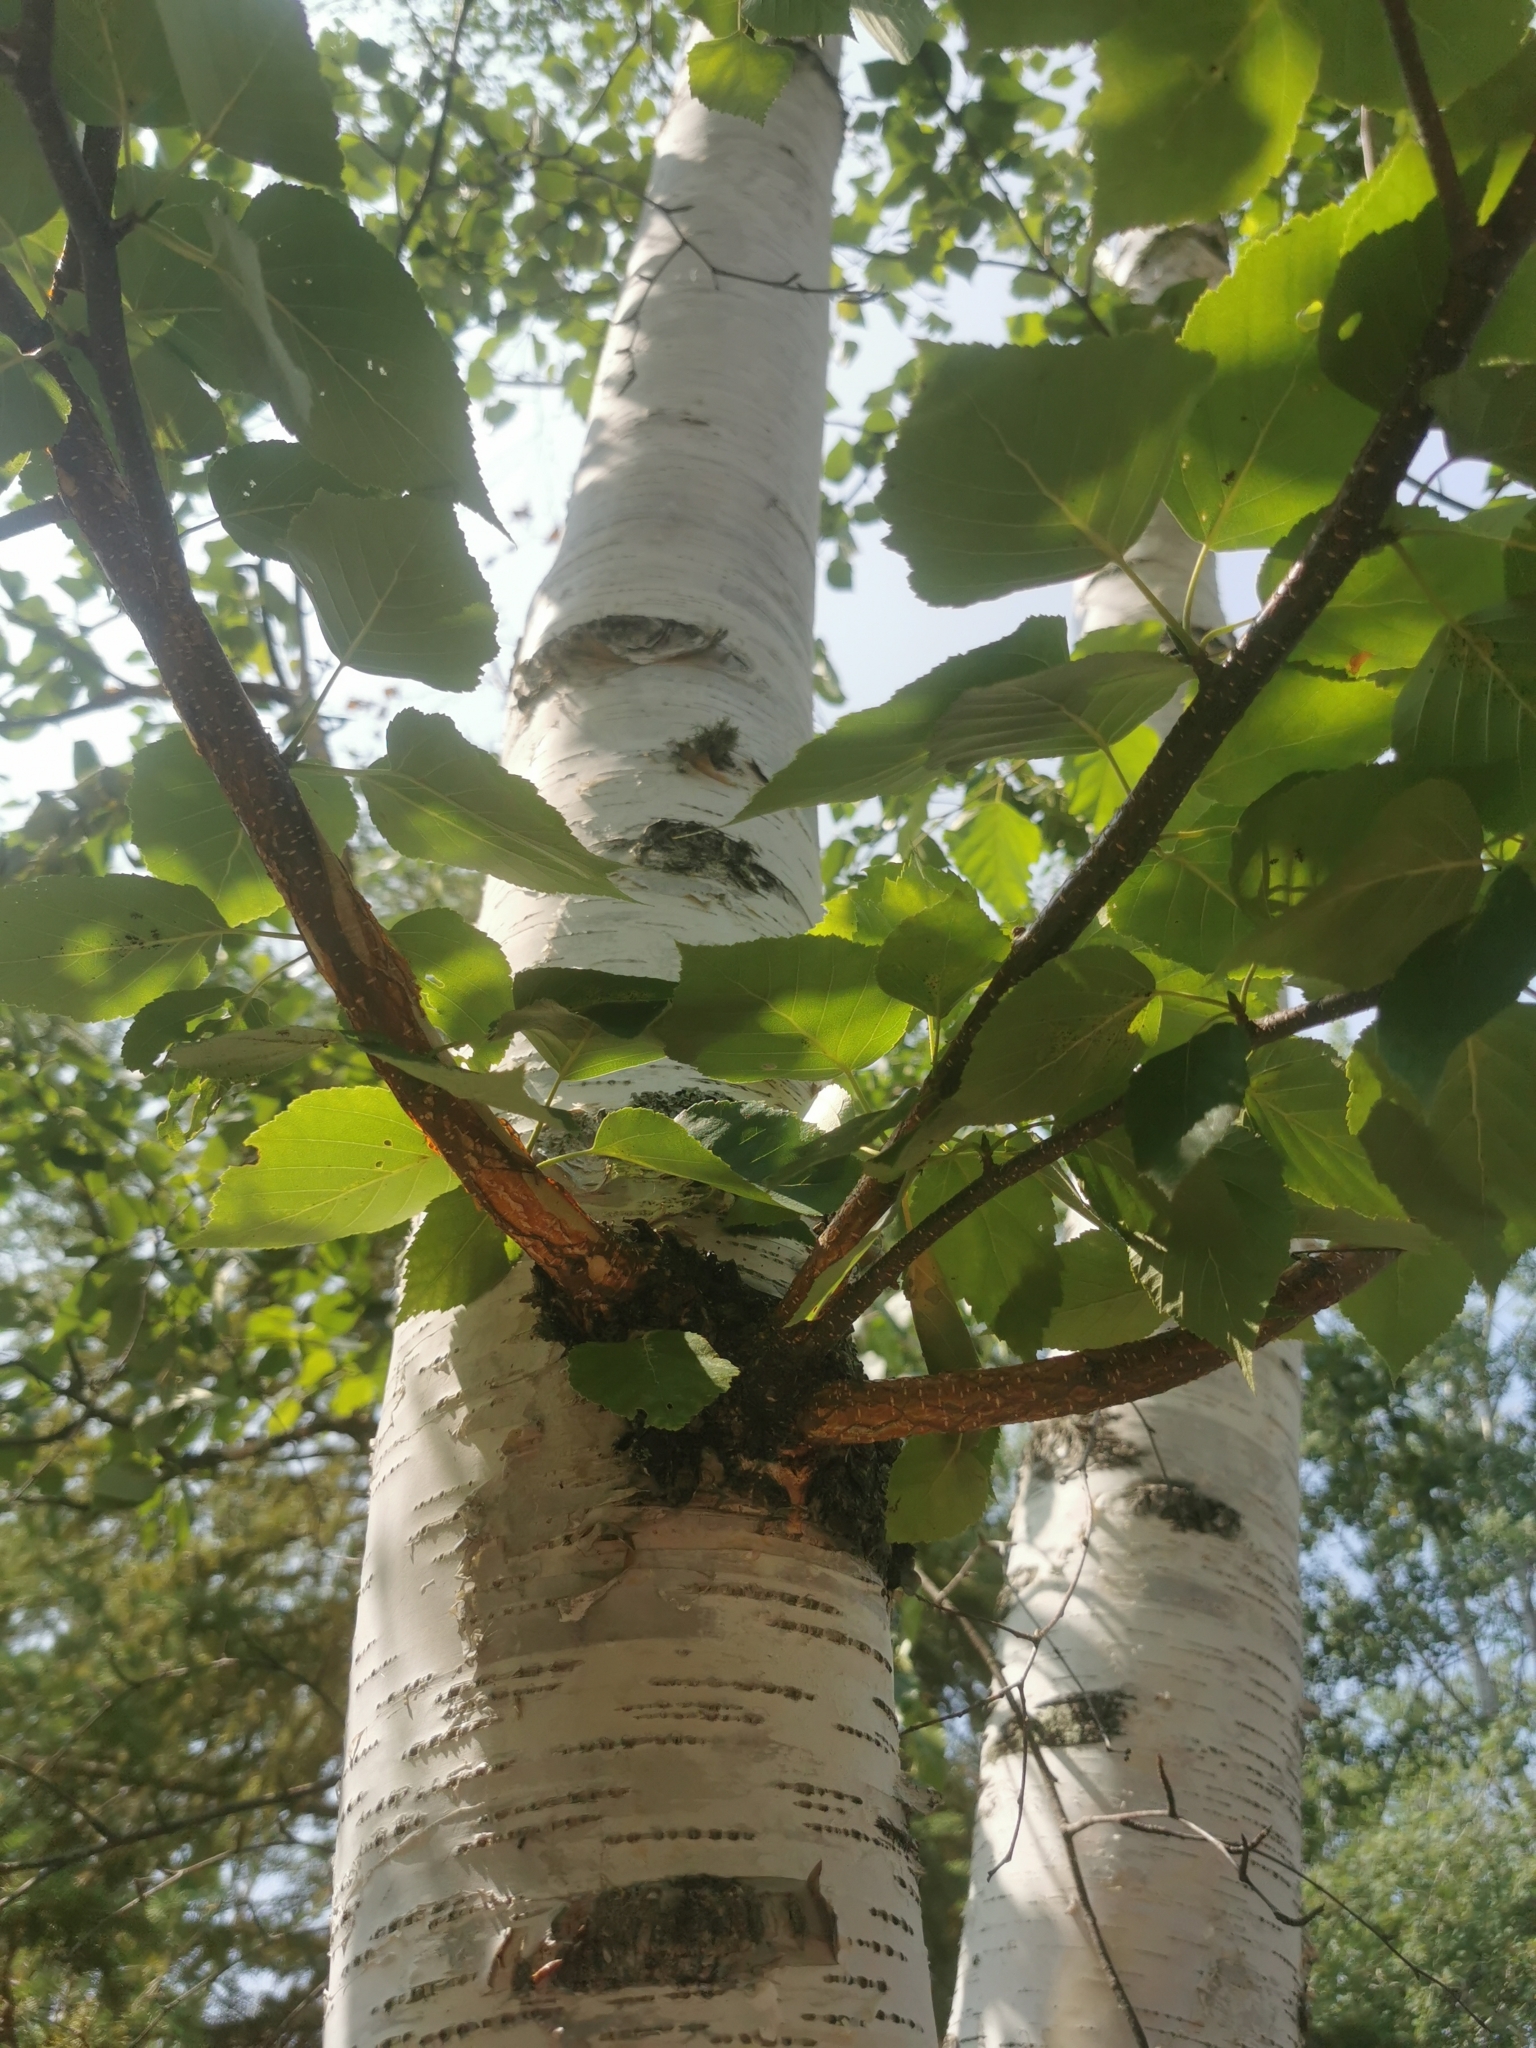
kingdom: Plantae
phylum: Tracheophyta
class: Magnoliopsida
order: Fagales
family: Betulaceae
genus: Betula
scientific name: Betula papyrifera
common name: Paper birch
